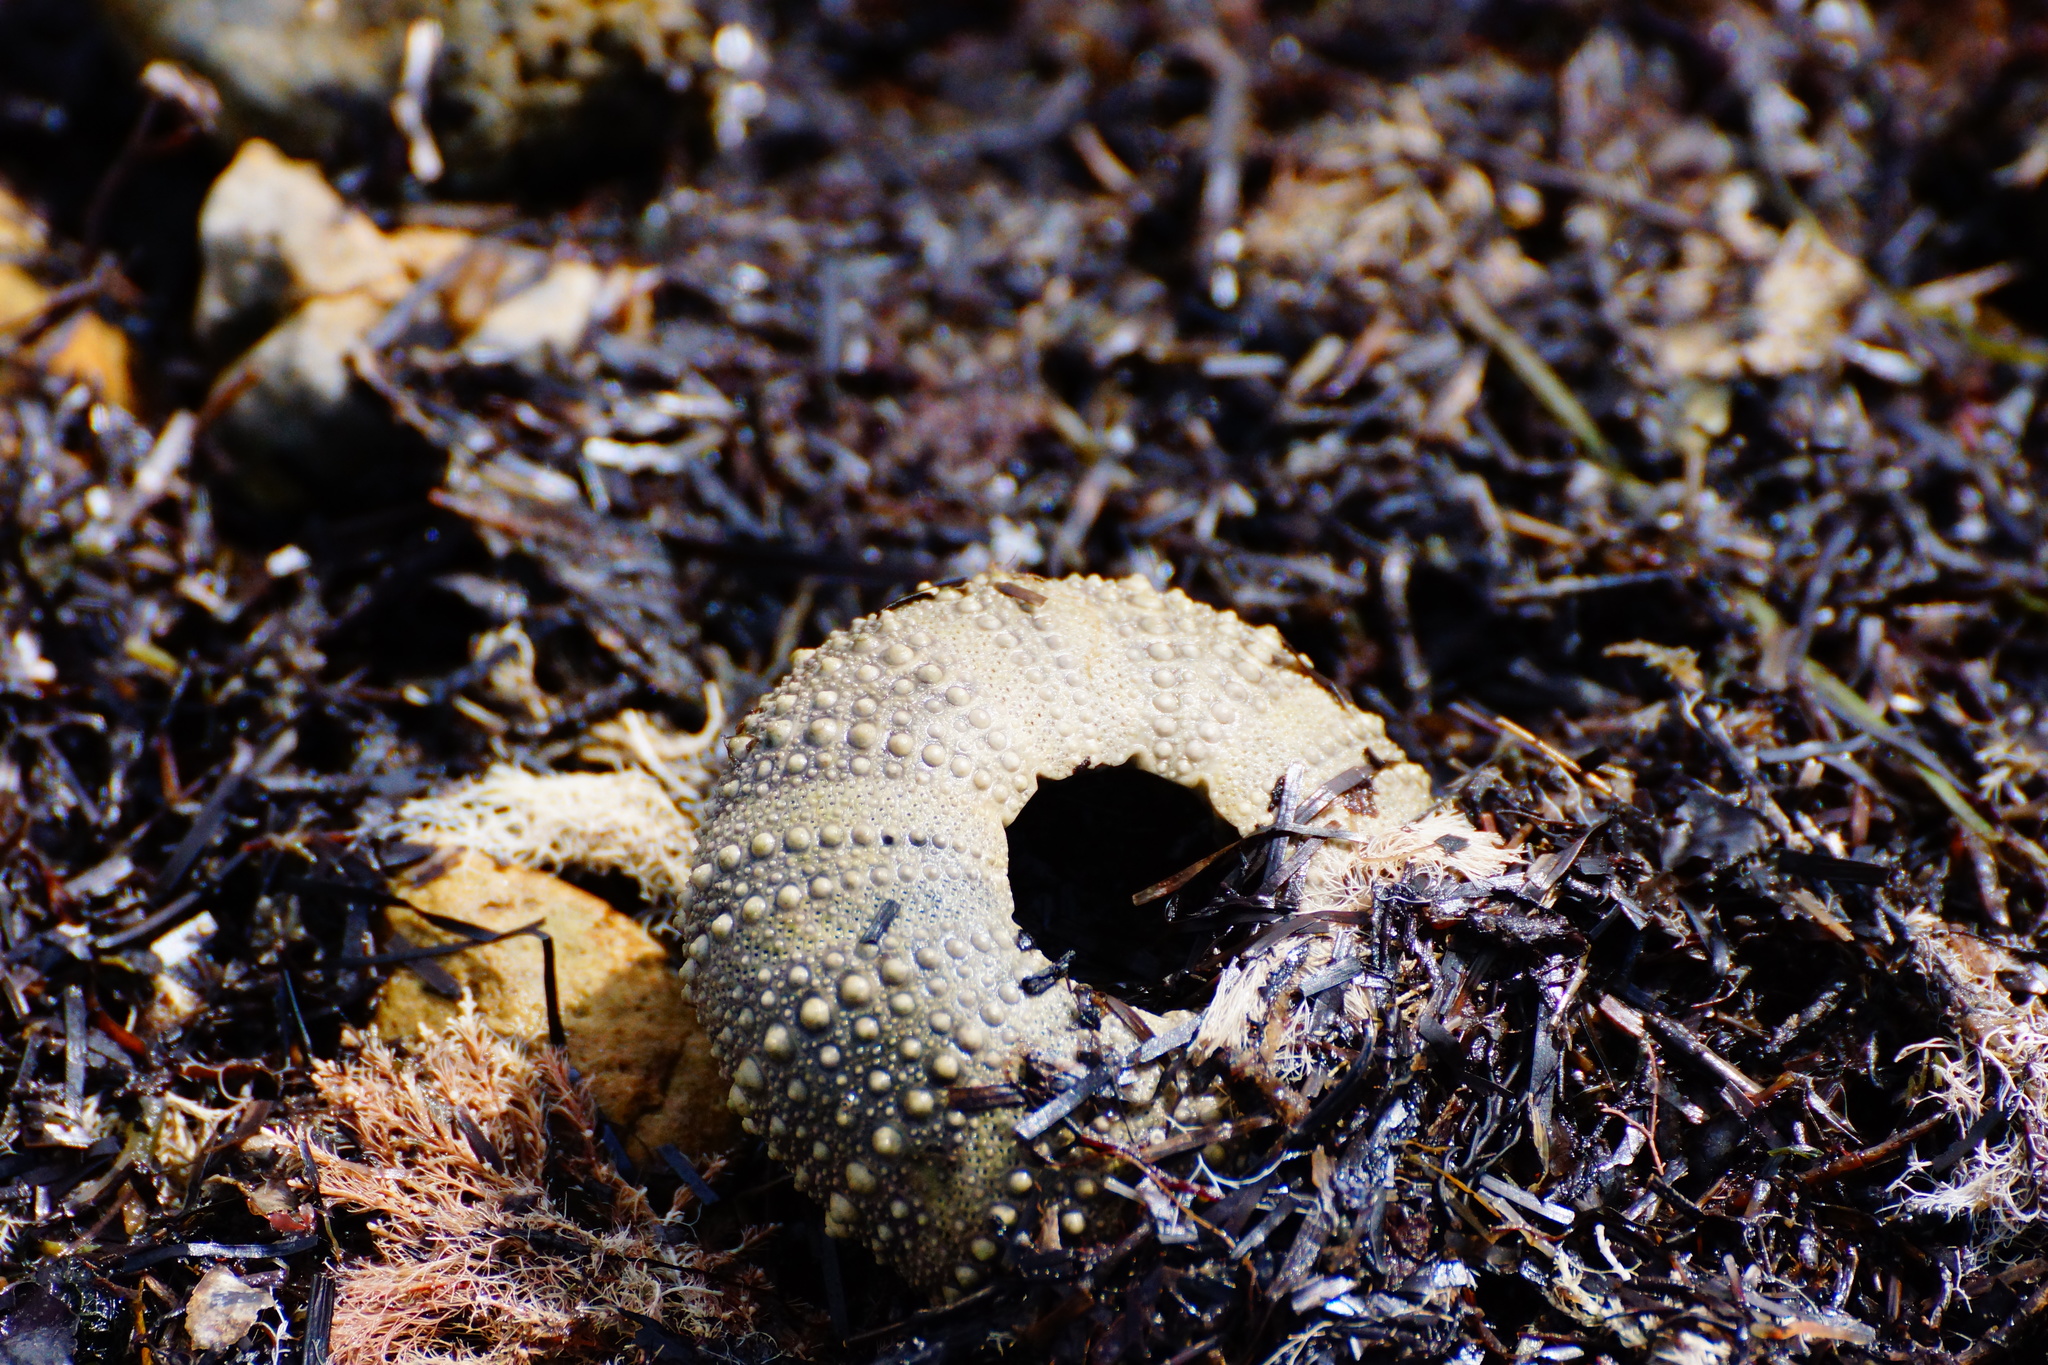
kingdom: Animalia
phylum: Echinodermata
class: Echinoidea
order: Camarodonta
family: Echinometridae
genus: Heliocidaris
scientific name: Heliocidaris erythrogramma
